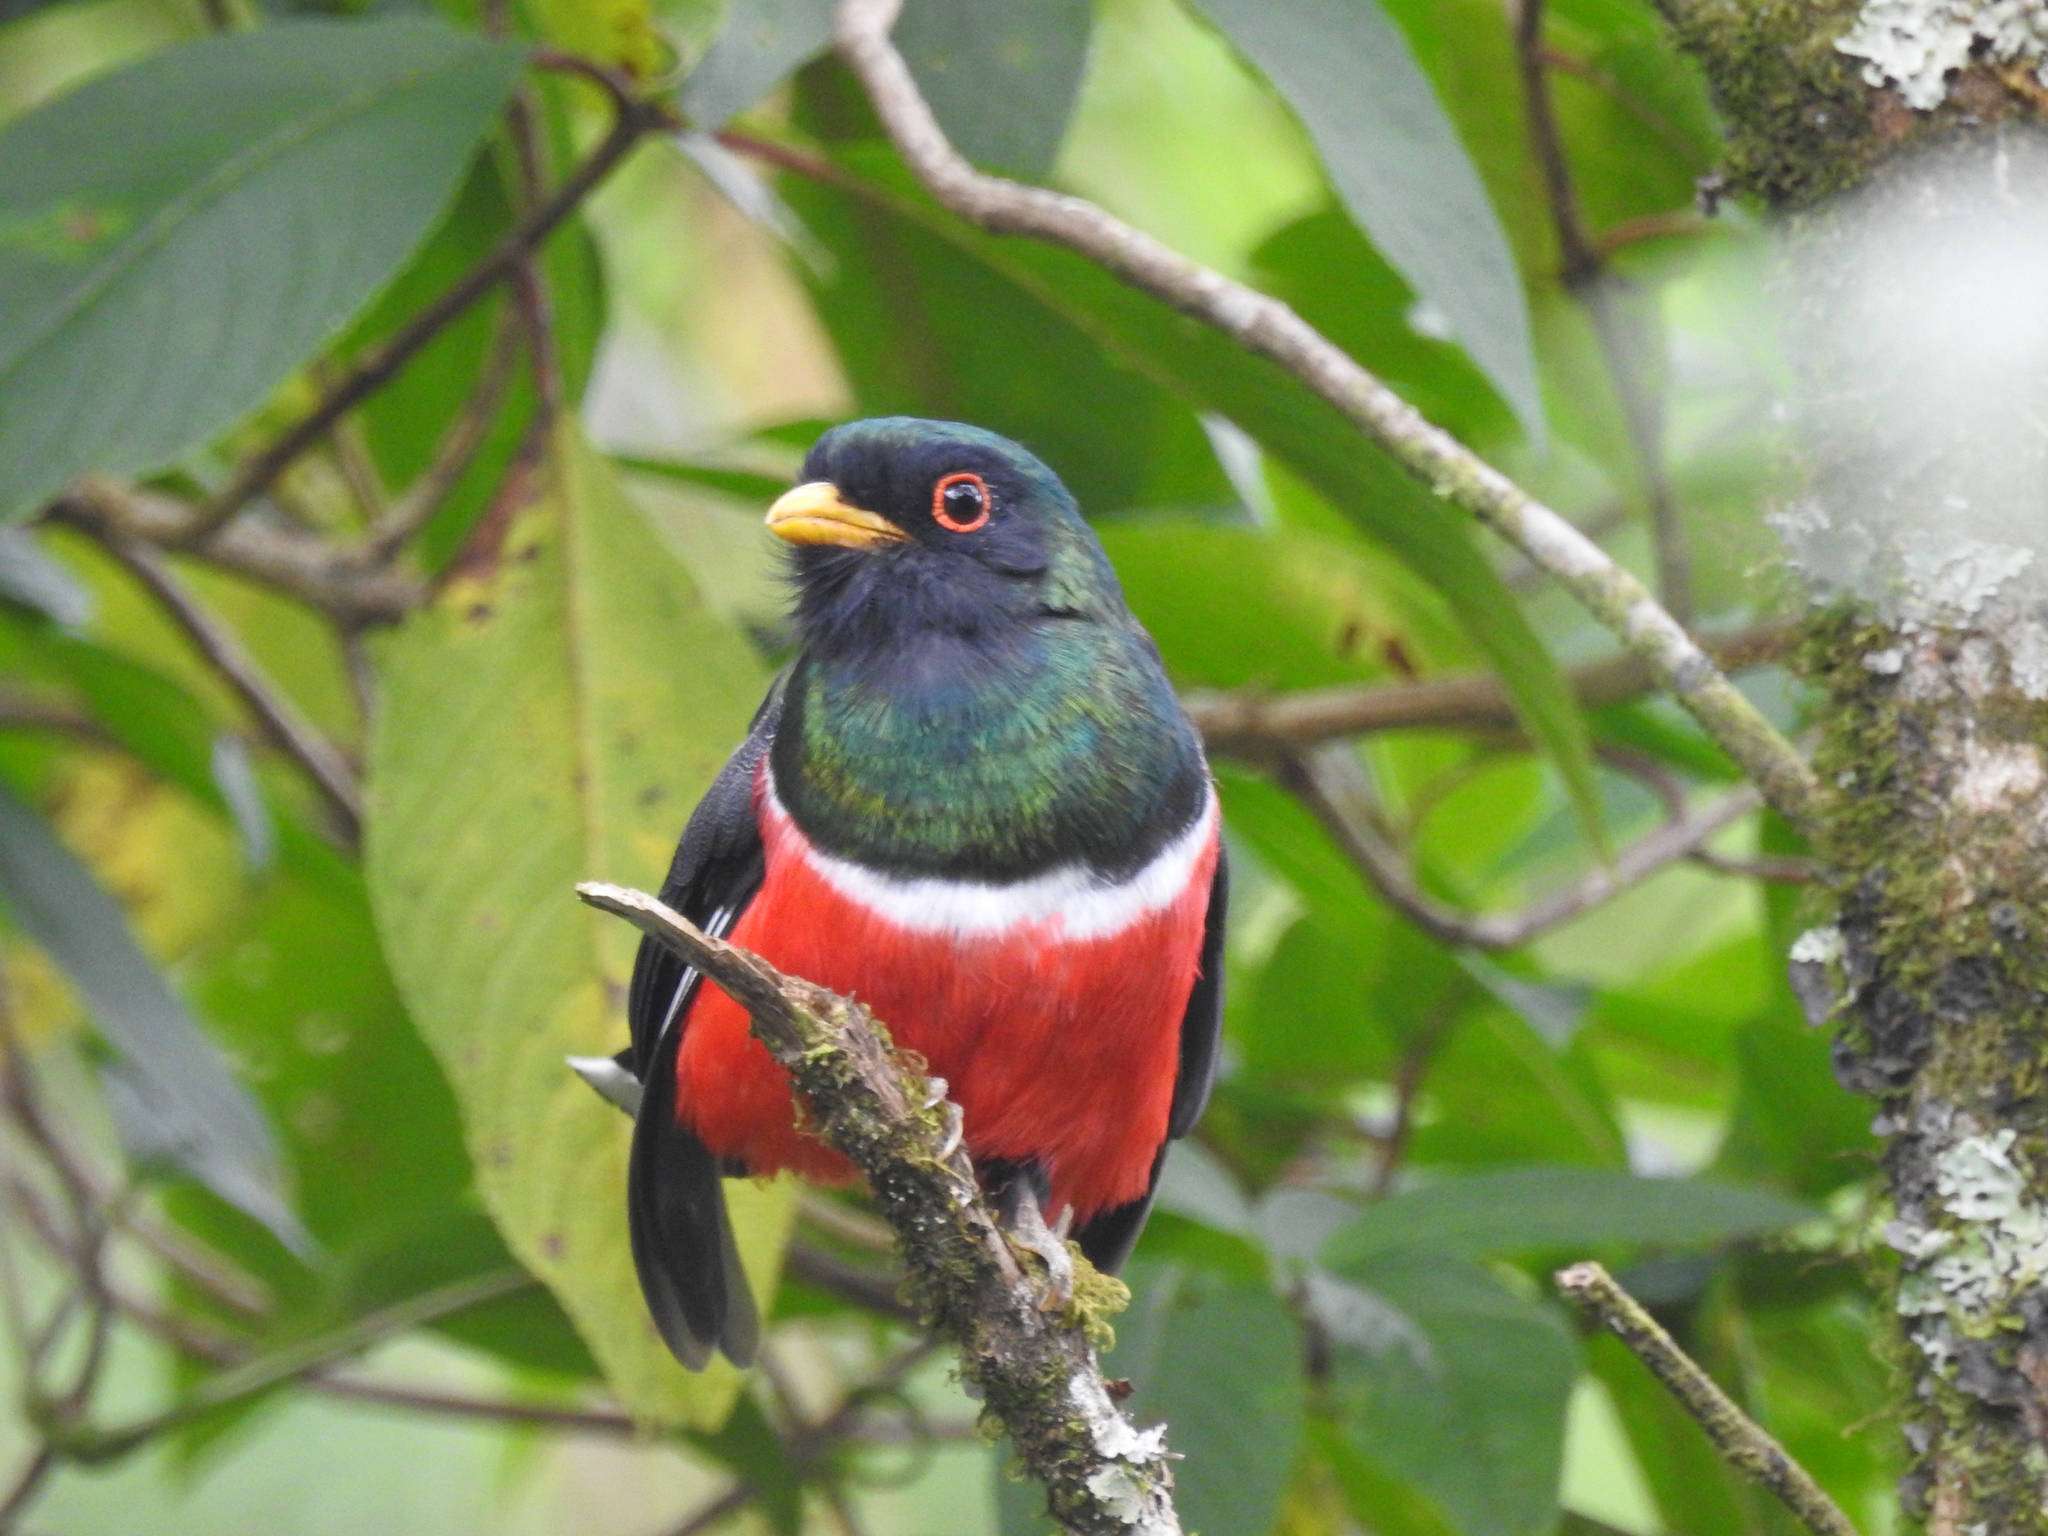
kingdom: Animalia
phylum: Chordata
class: Aves
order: Trogoniformes
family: Trogonidae
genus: Trogon
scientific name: Trogon personatus
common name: Masked trogon
